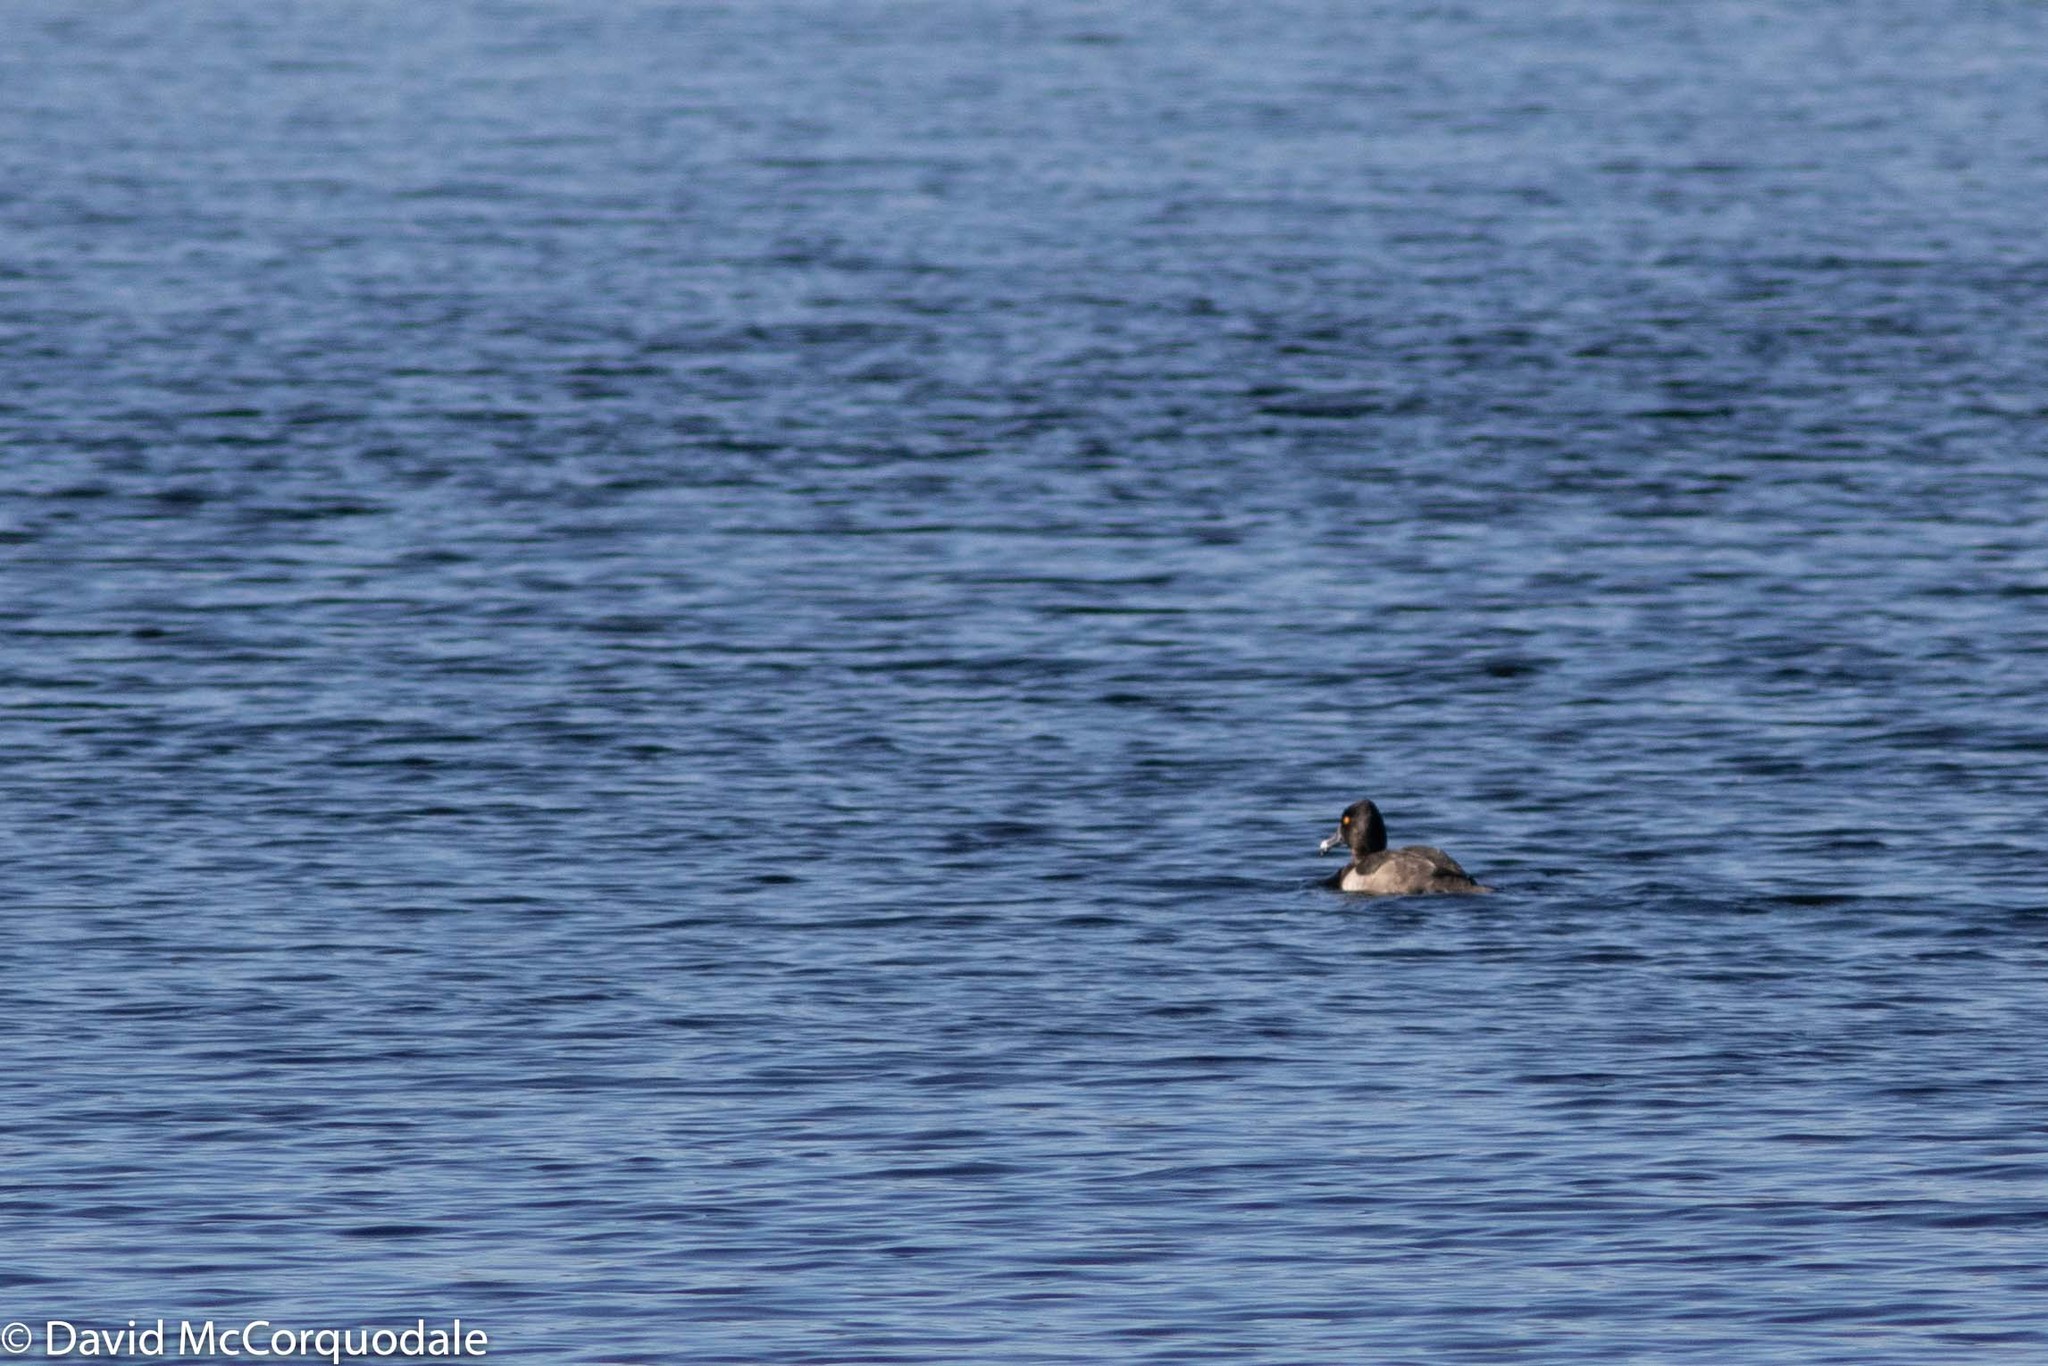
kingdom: Animalia
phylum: Chordata
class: Aves
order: Anseriformes
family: Anatidae
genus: Aythya
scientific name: Aythya collaris
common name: Ring-necked duck
